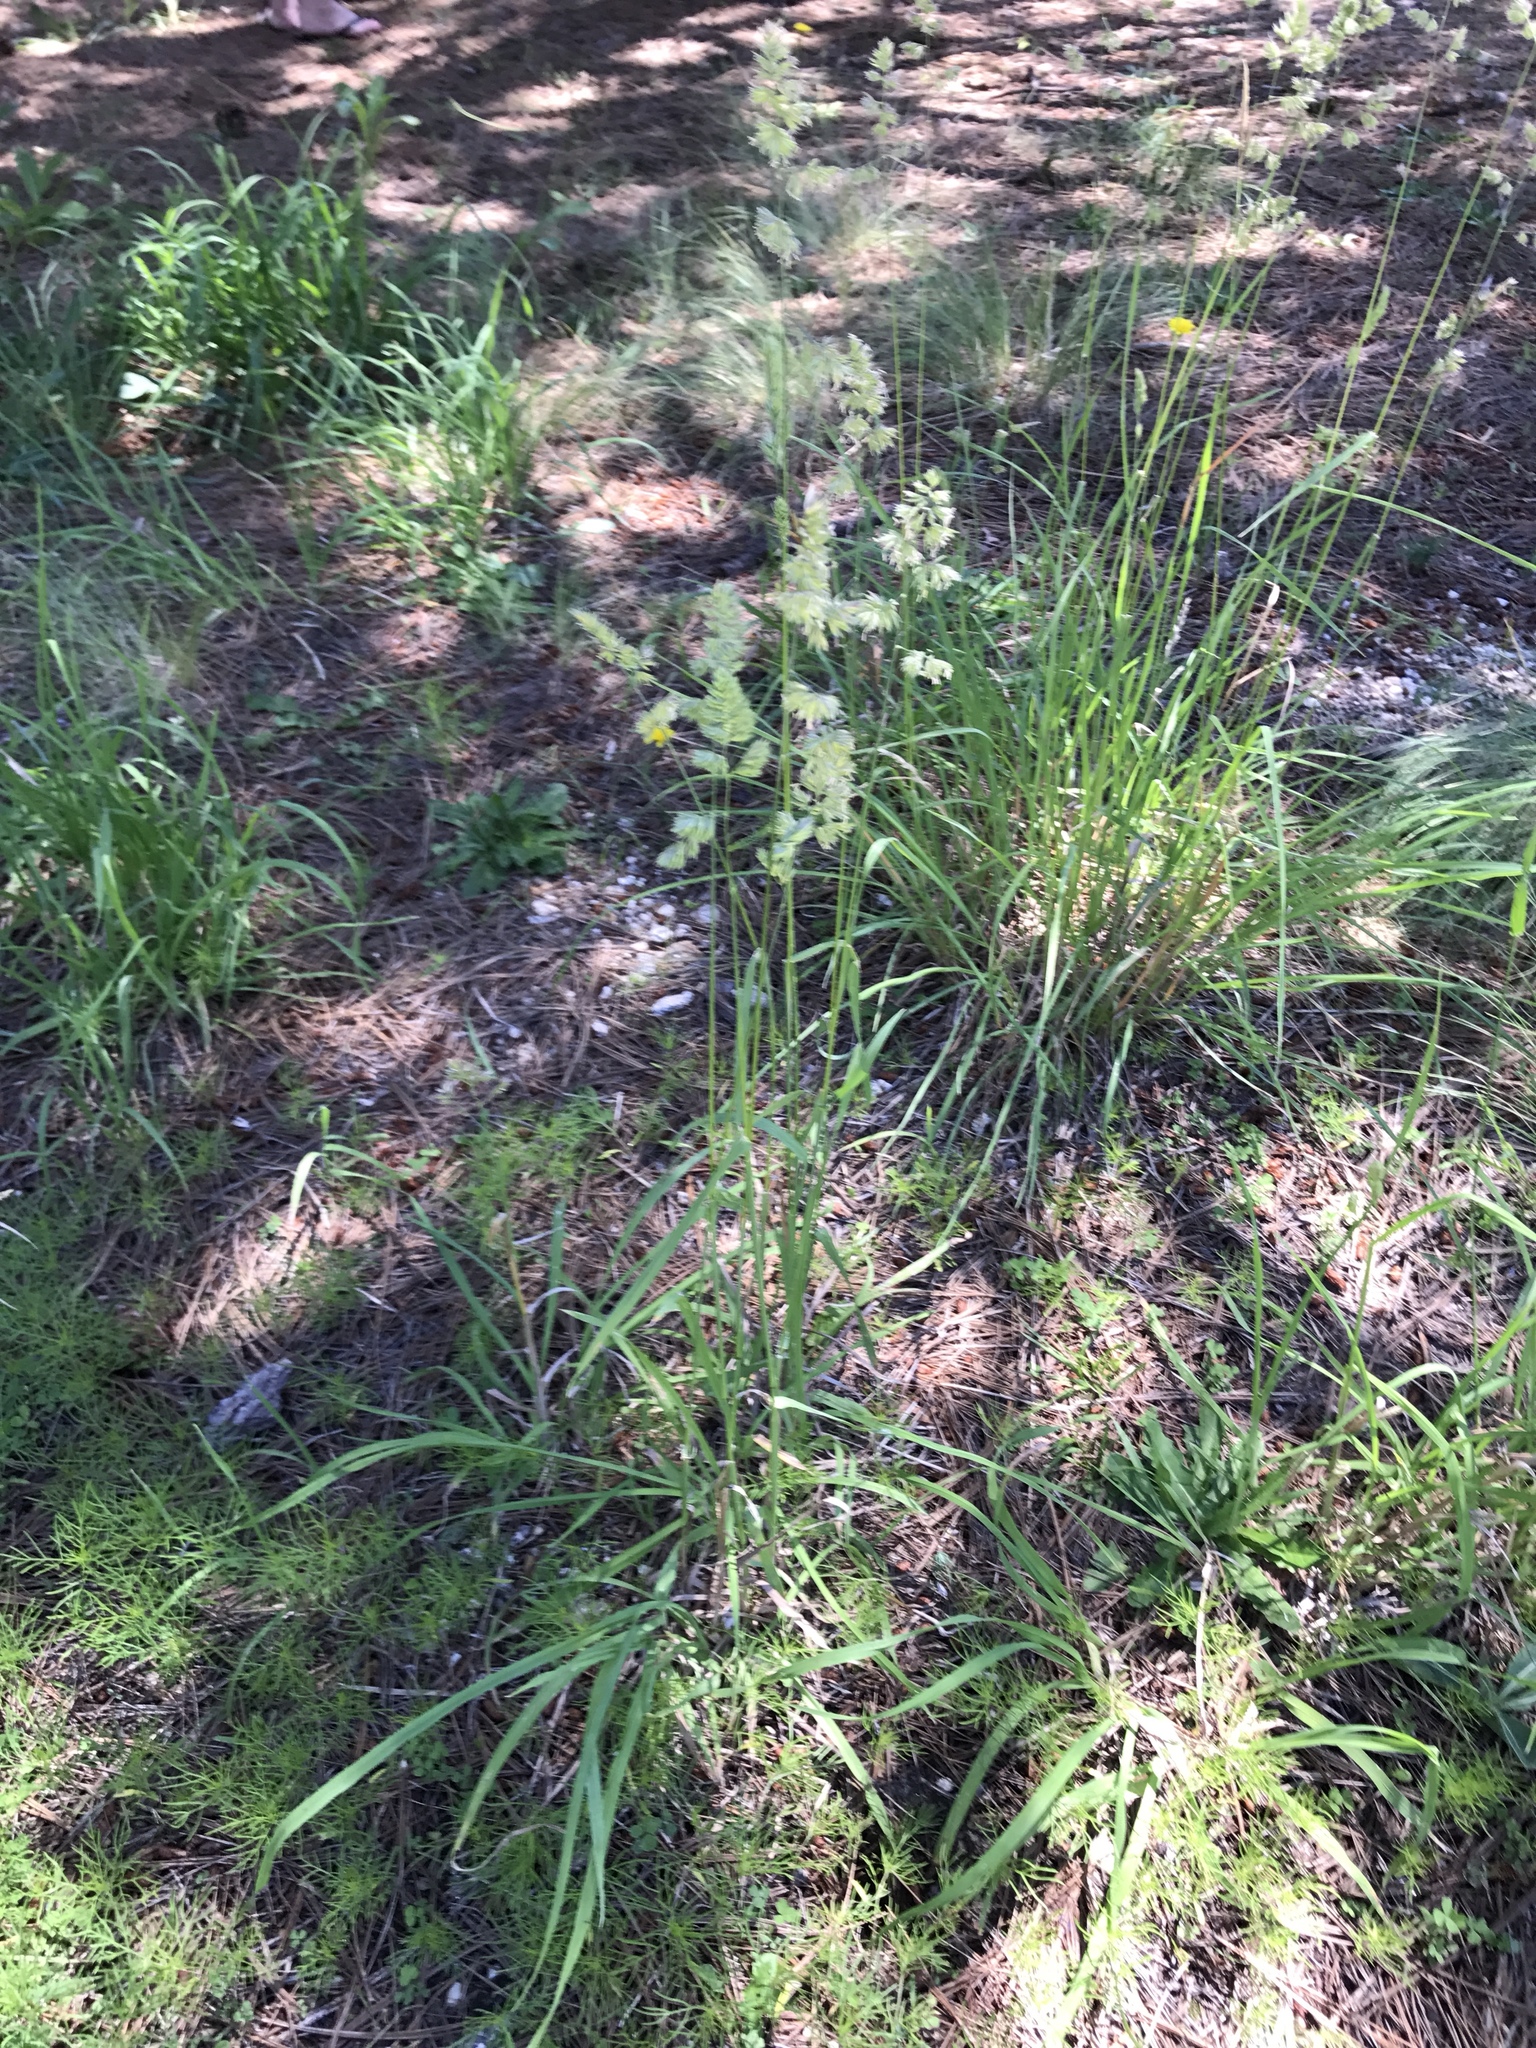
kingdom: Plantae
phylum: Tracheophyta
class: Liliopsida
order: Poales
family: Poaceae
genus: Dactylis
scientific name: Dactylis glomerata
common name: Orchardgrass
